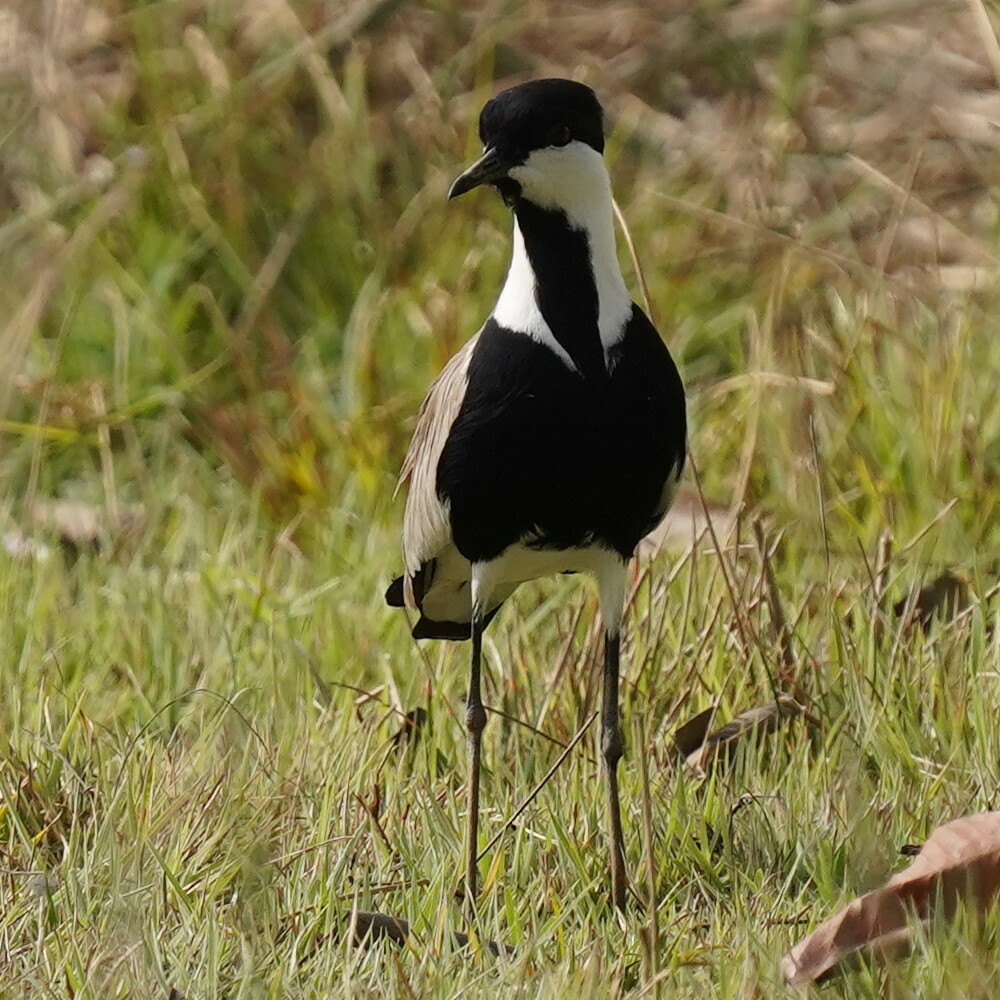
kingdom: Animalia
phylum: Chordata
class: Aves
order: Charadriiformes
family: Charadriidae
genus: Vanellus
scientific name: Vanellus spinosus
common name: Spur-winged lapwing
